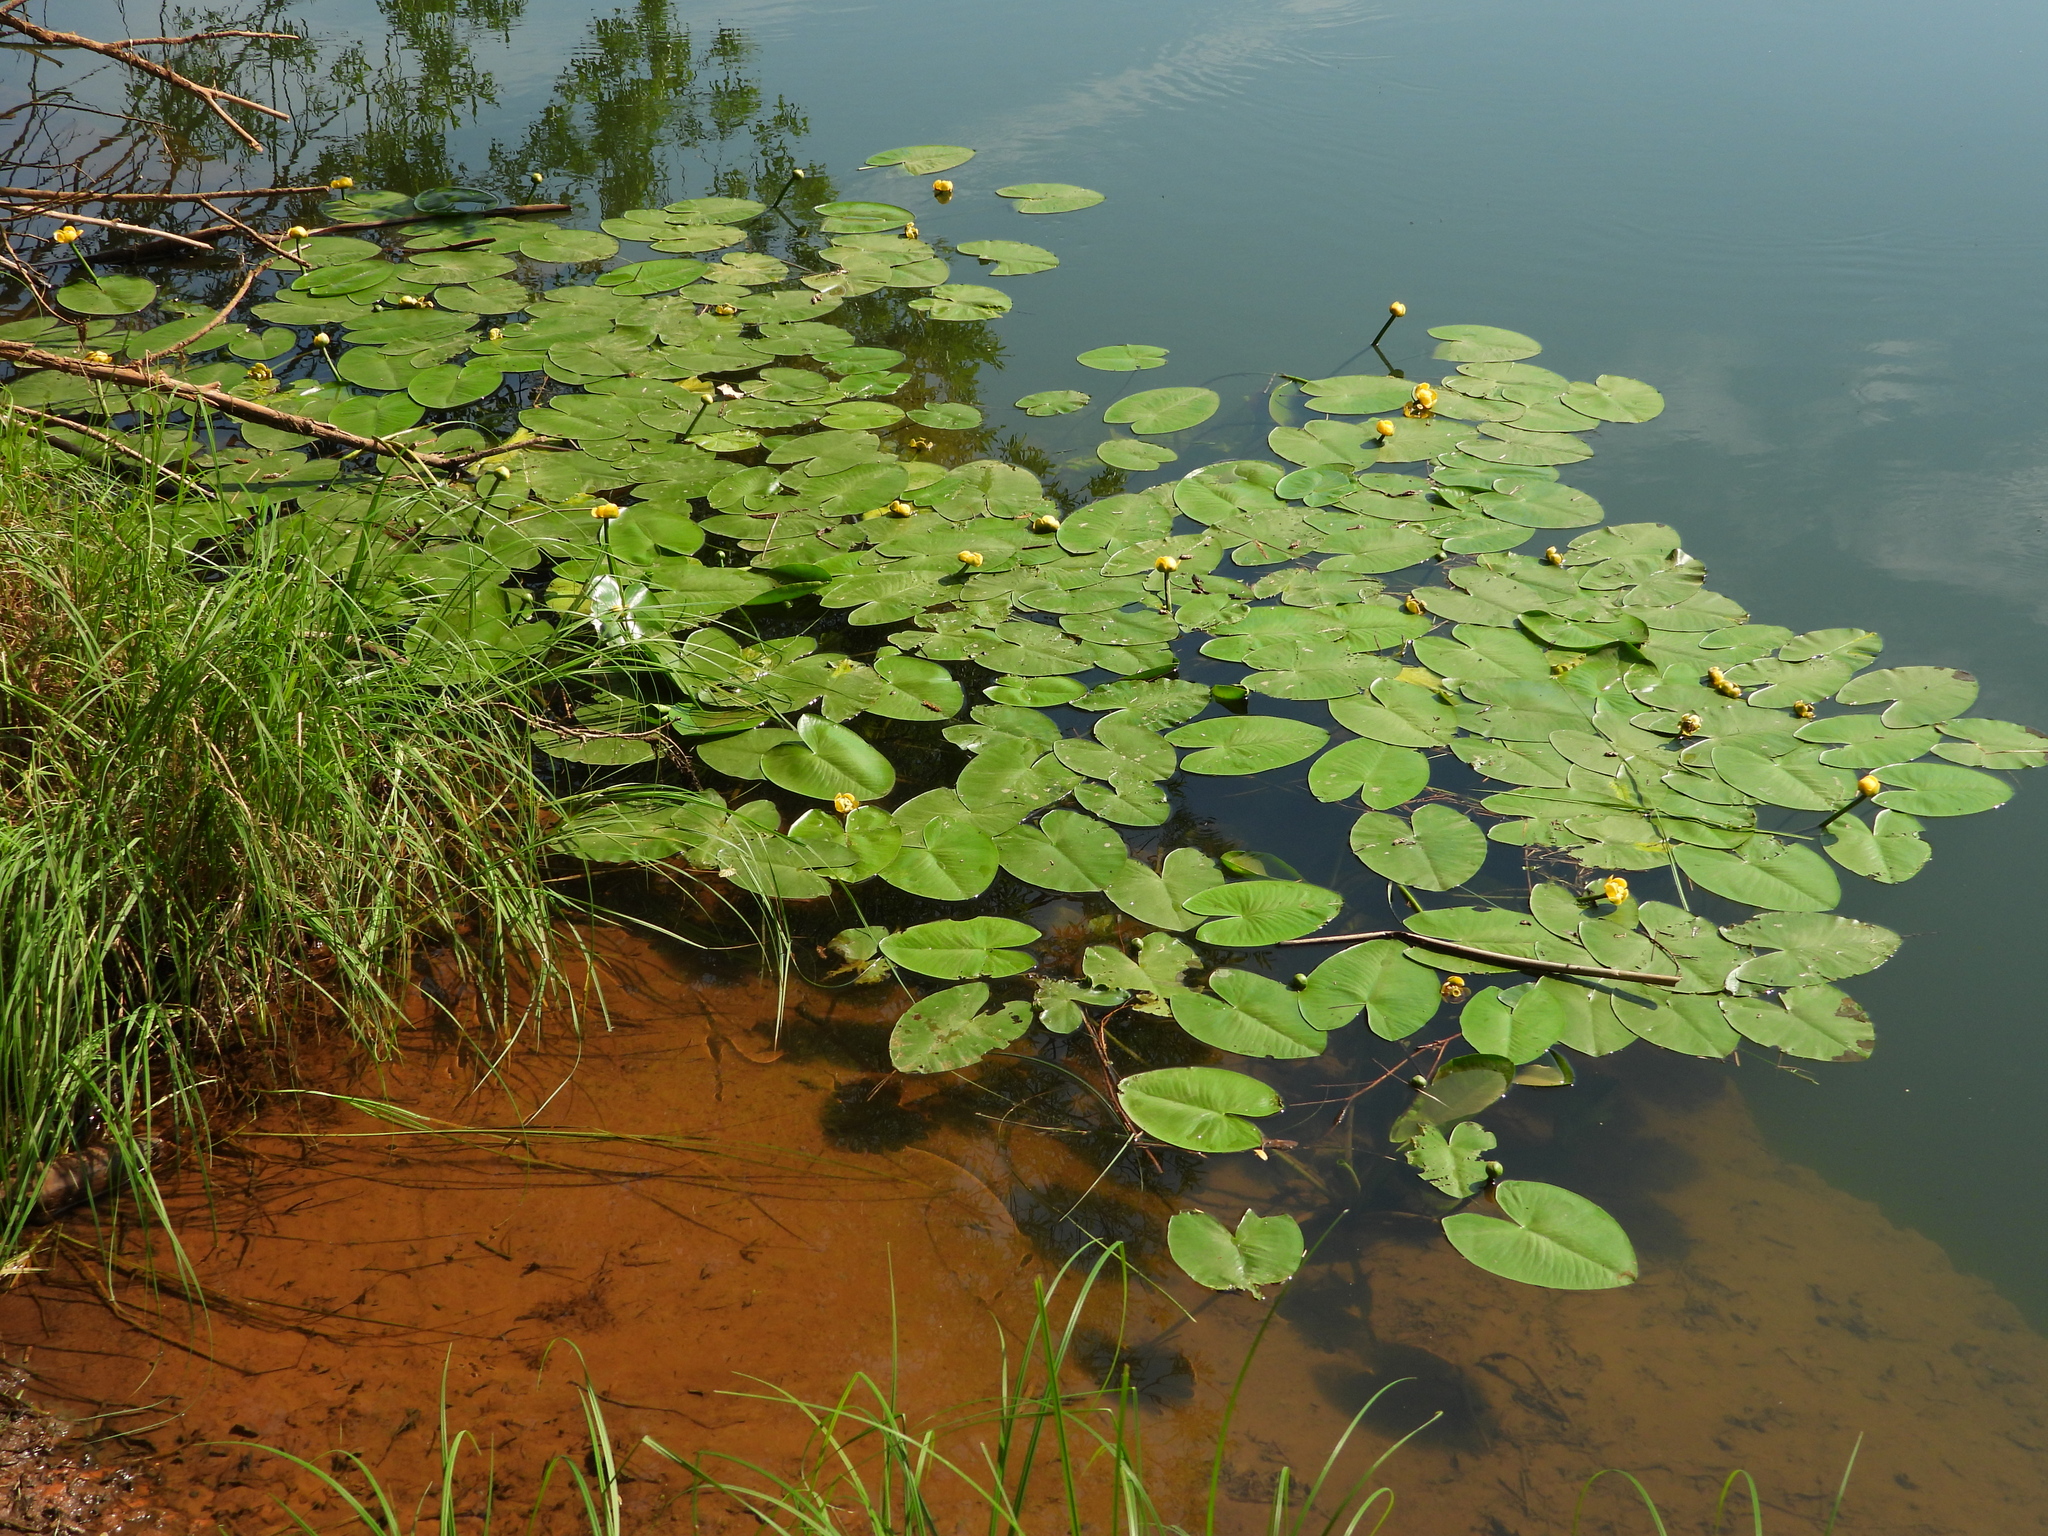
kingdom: Plantae
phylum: Tracheophyta
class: Magnoliopsida
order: Nymphaeales
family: Nymphaeaceae
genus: Nuphar
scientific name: Nuphar lutea
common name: Yellow water-lily
